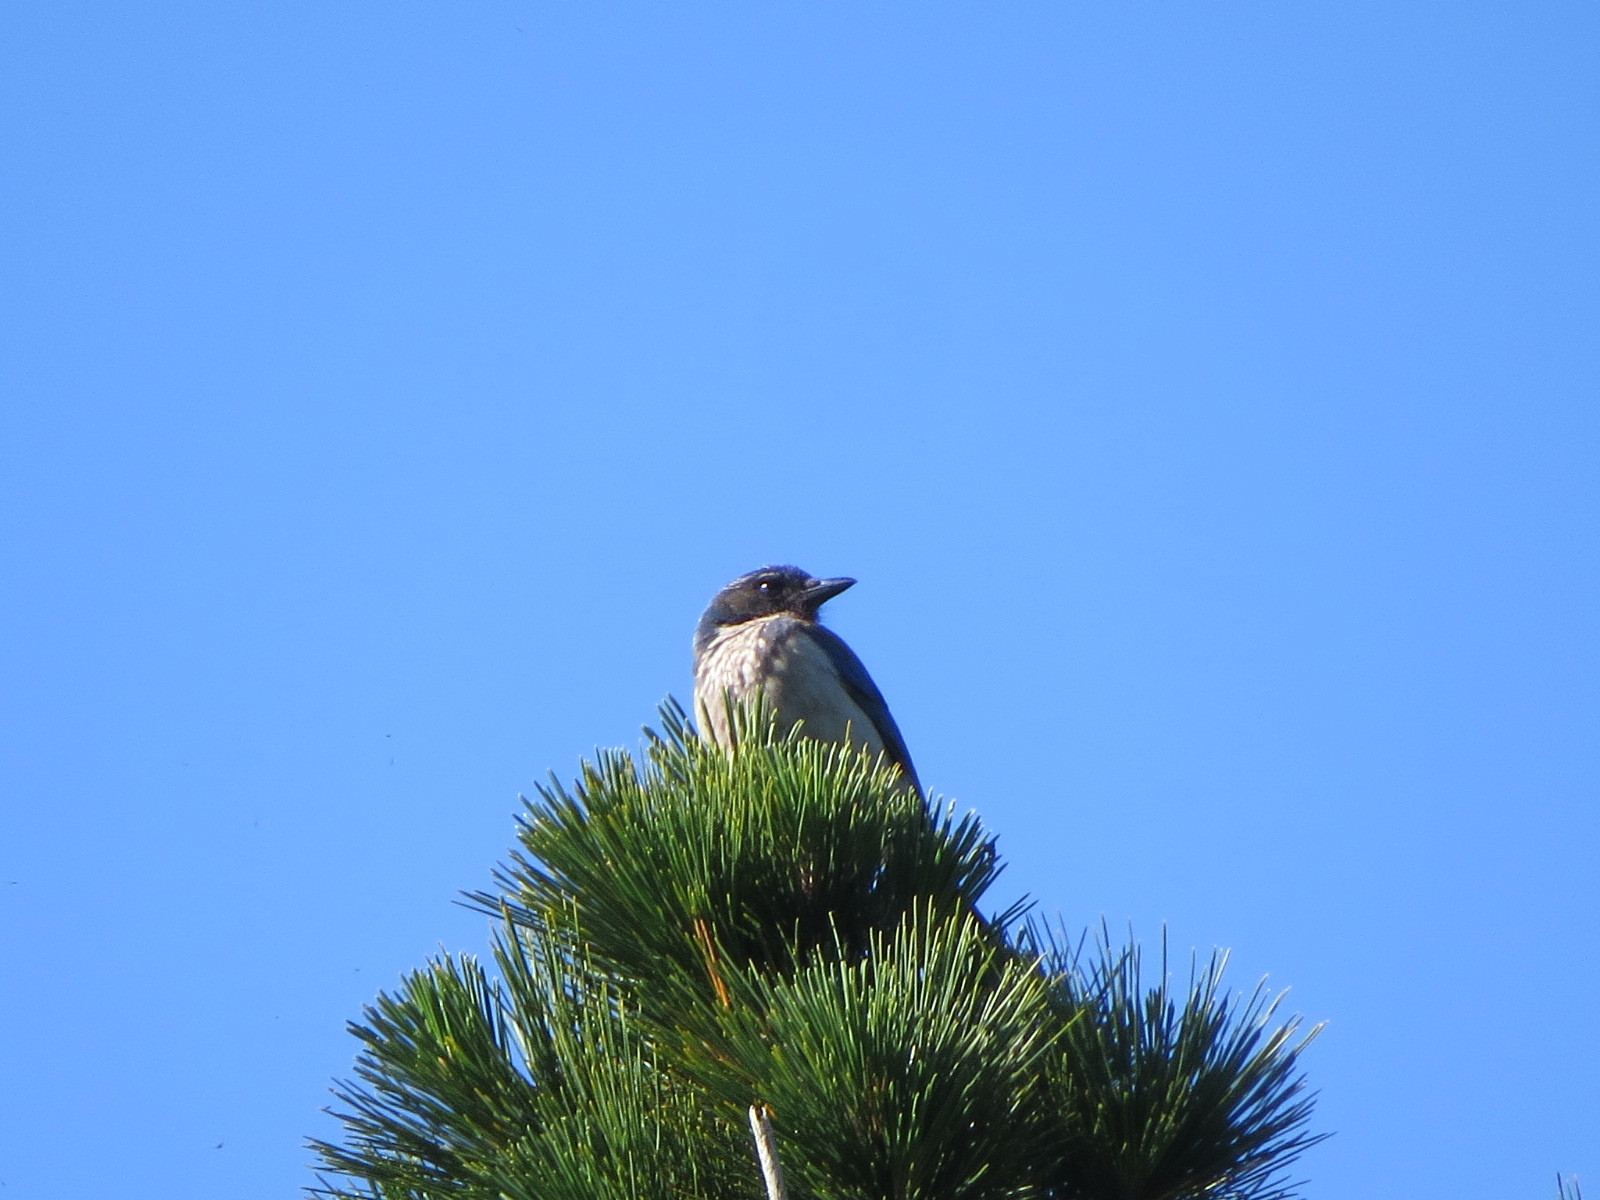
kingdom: Animalia
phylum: Chordata
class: Aves
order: Passeriformes
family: Corvidae
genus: Aphelocoma
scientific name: Aphelocoma californica
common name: California scrub-jay
